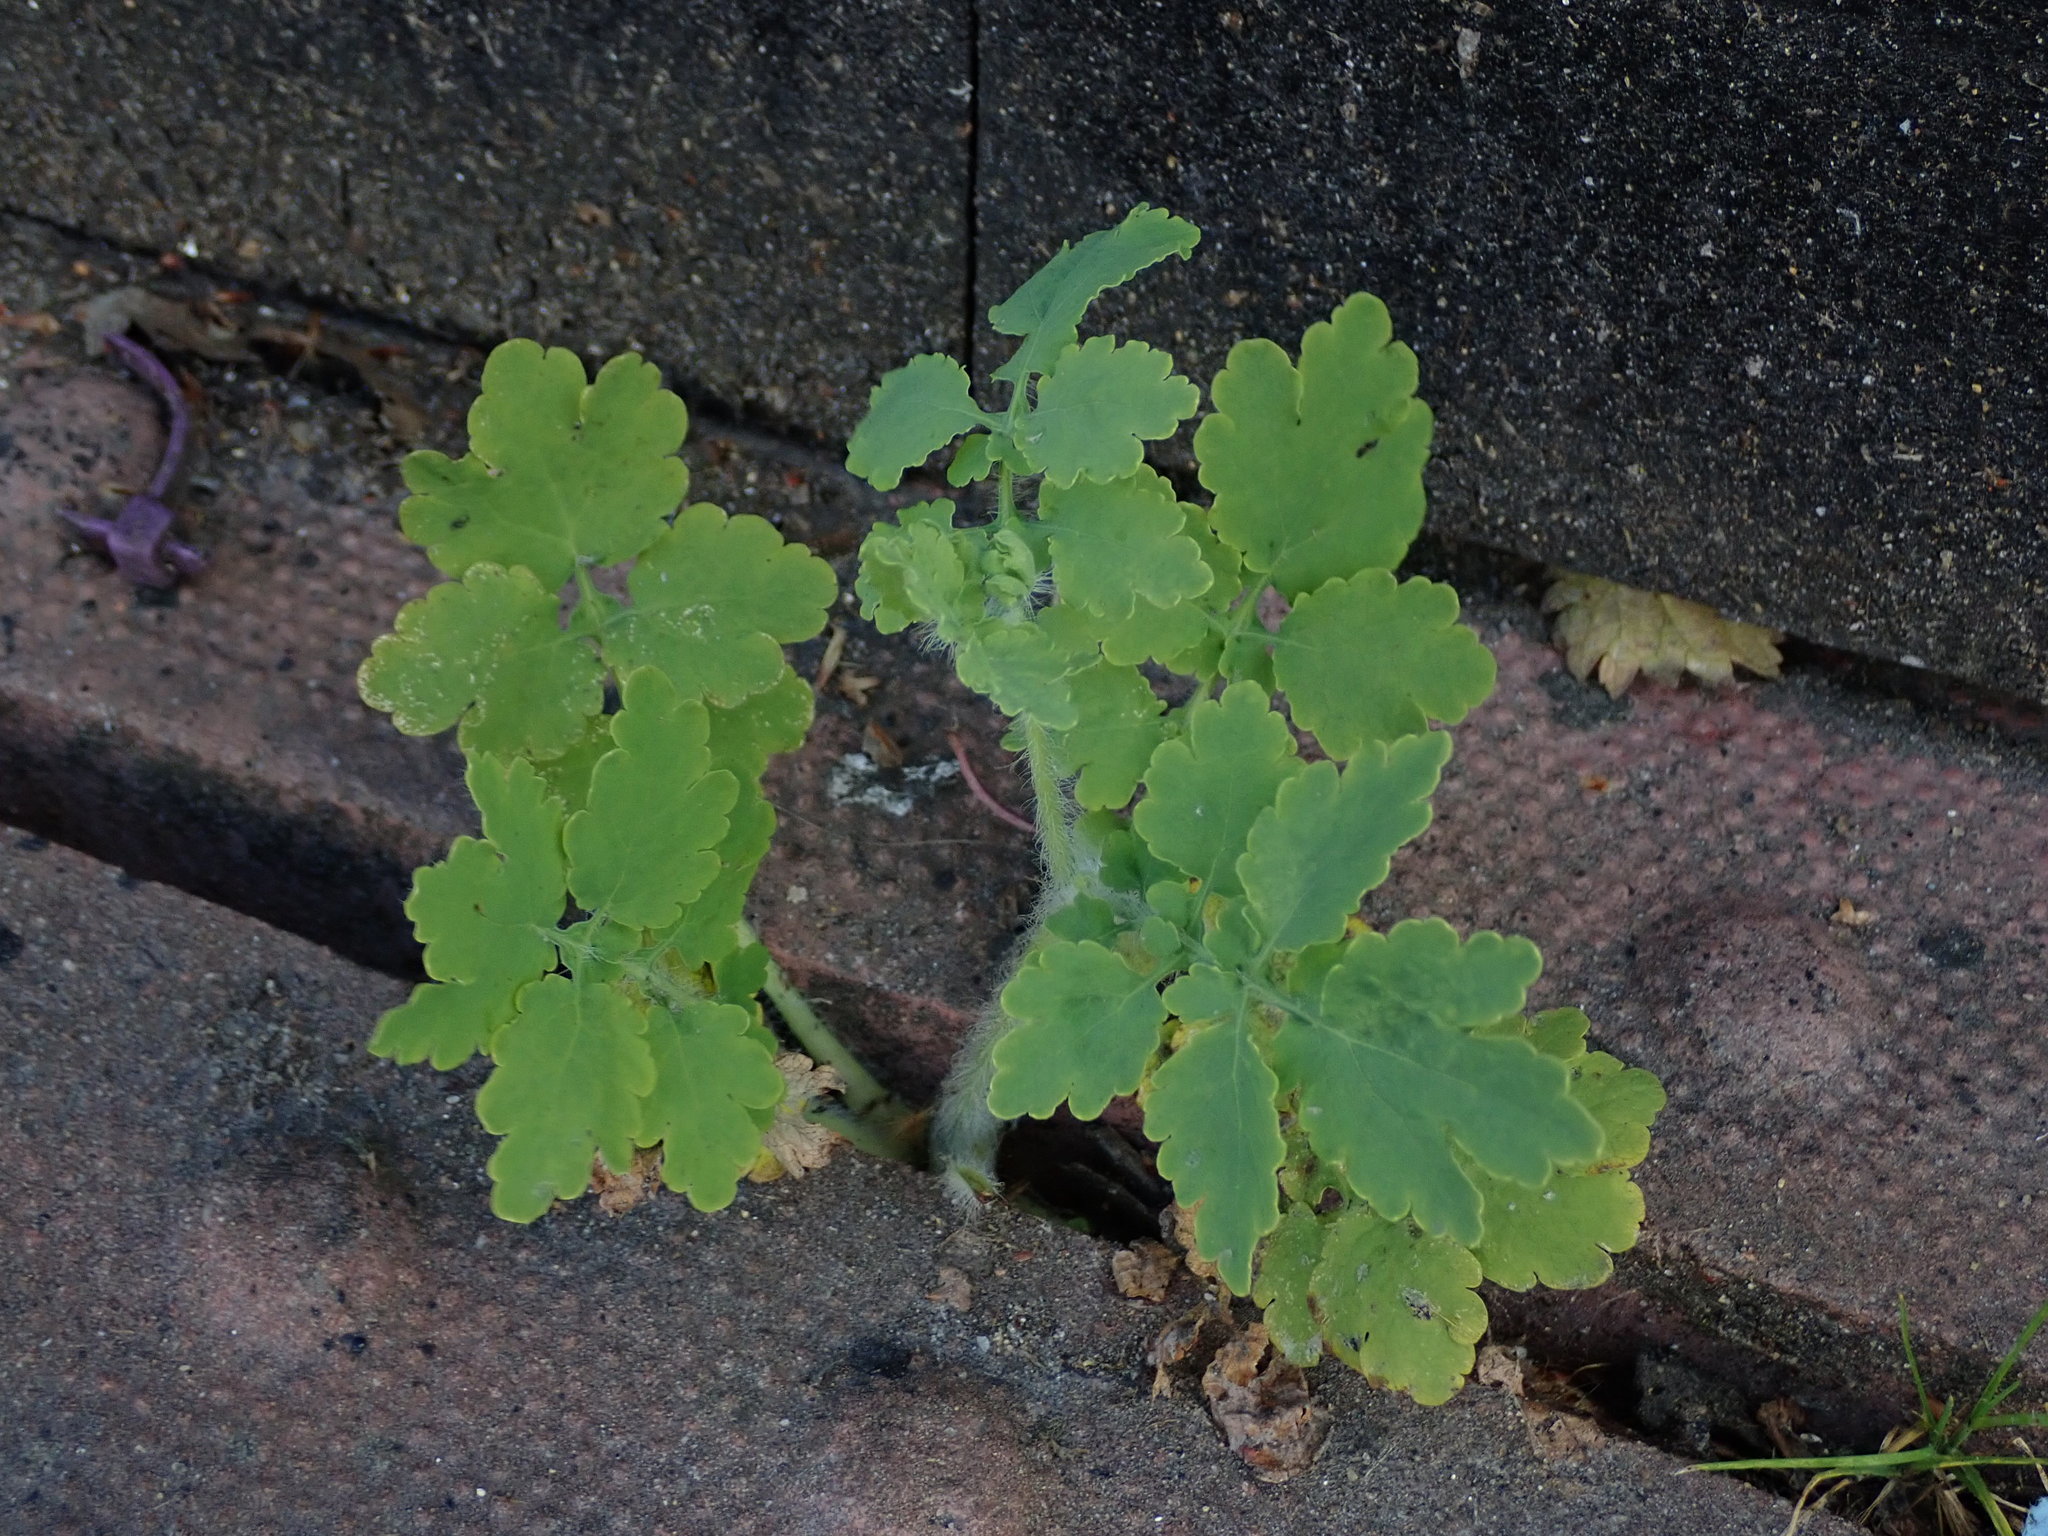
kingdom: Plantae
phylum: Tracheophyta
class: Magnoliopsida
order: Ranunculales
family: Papaveraceae
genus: Chelidonium
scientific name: Chelidonium majus
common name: Greater celandine
